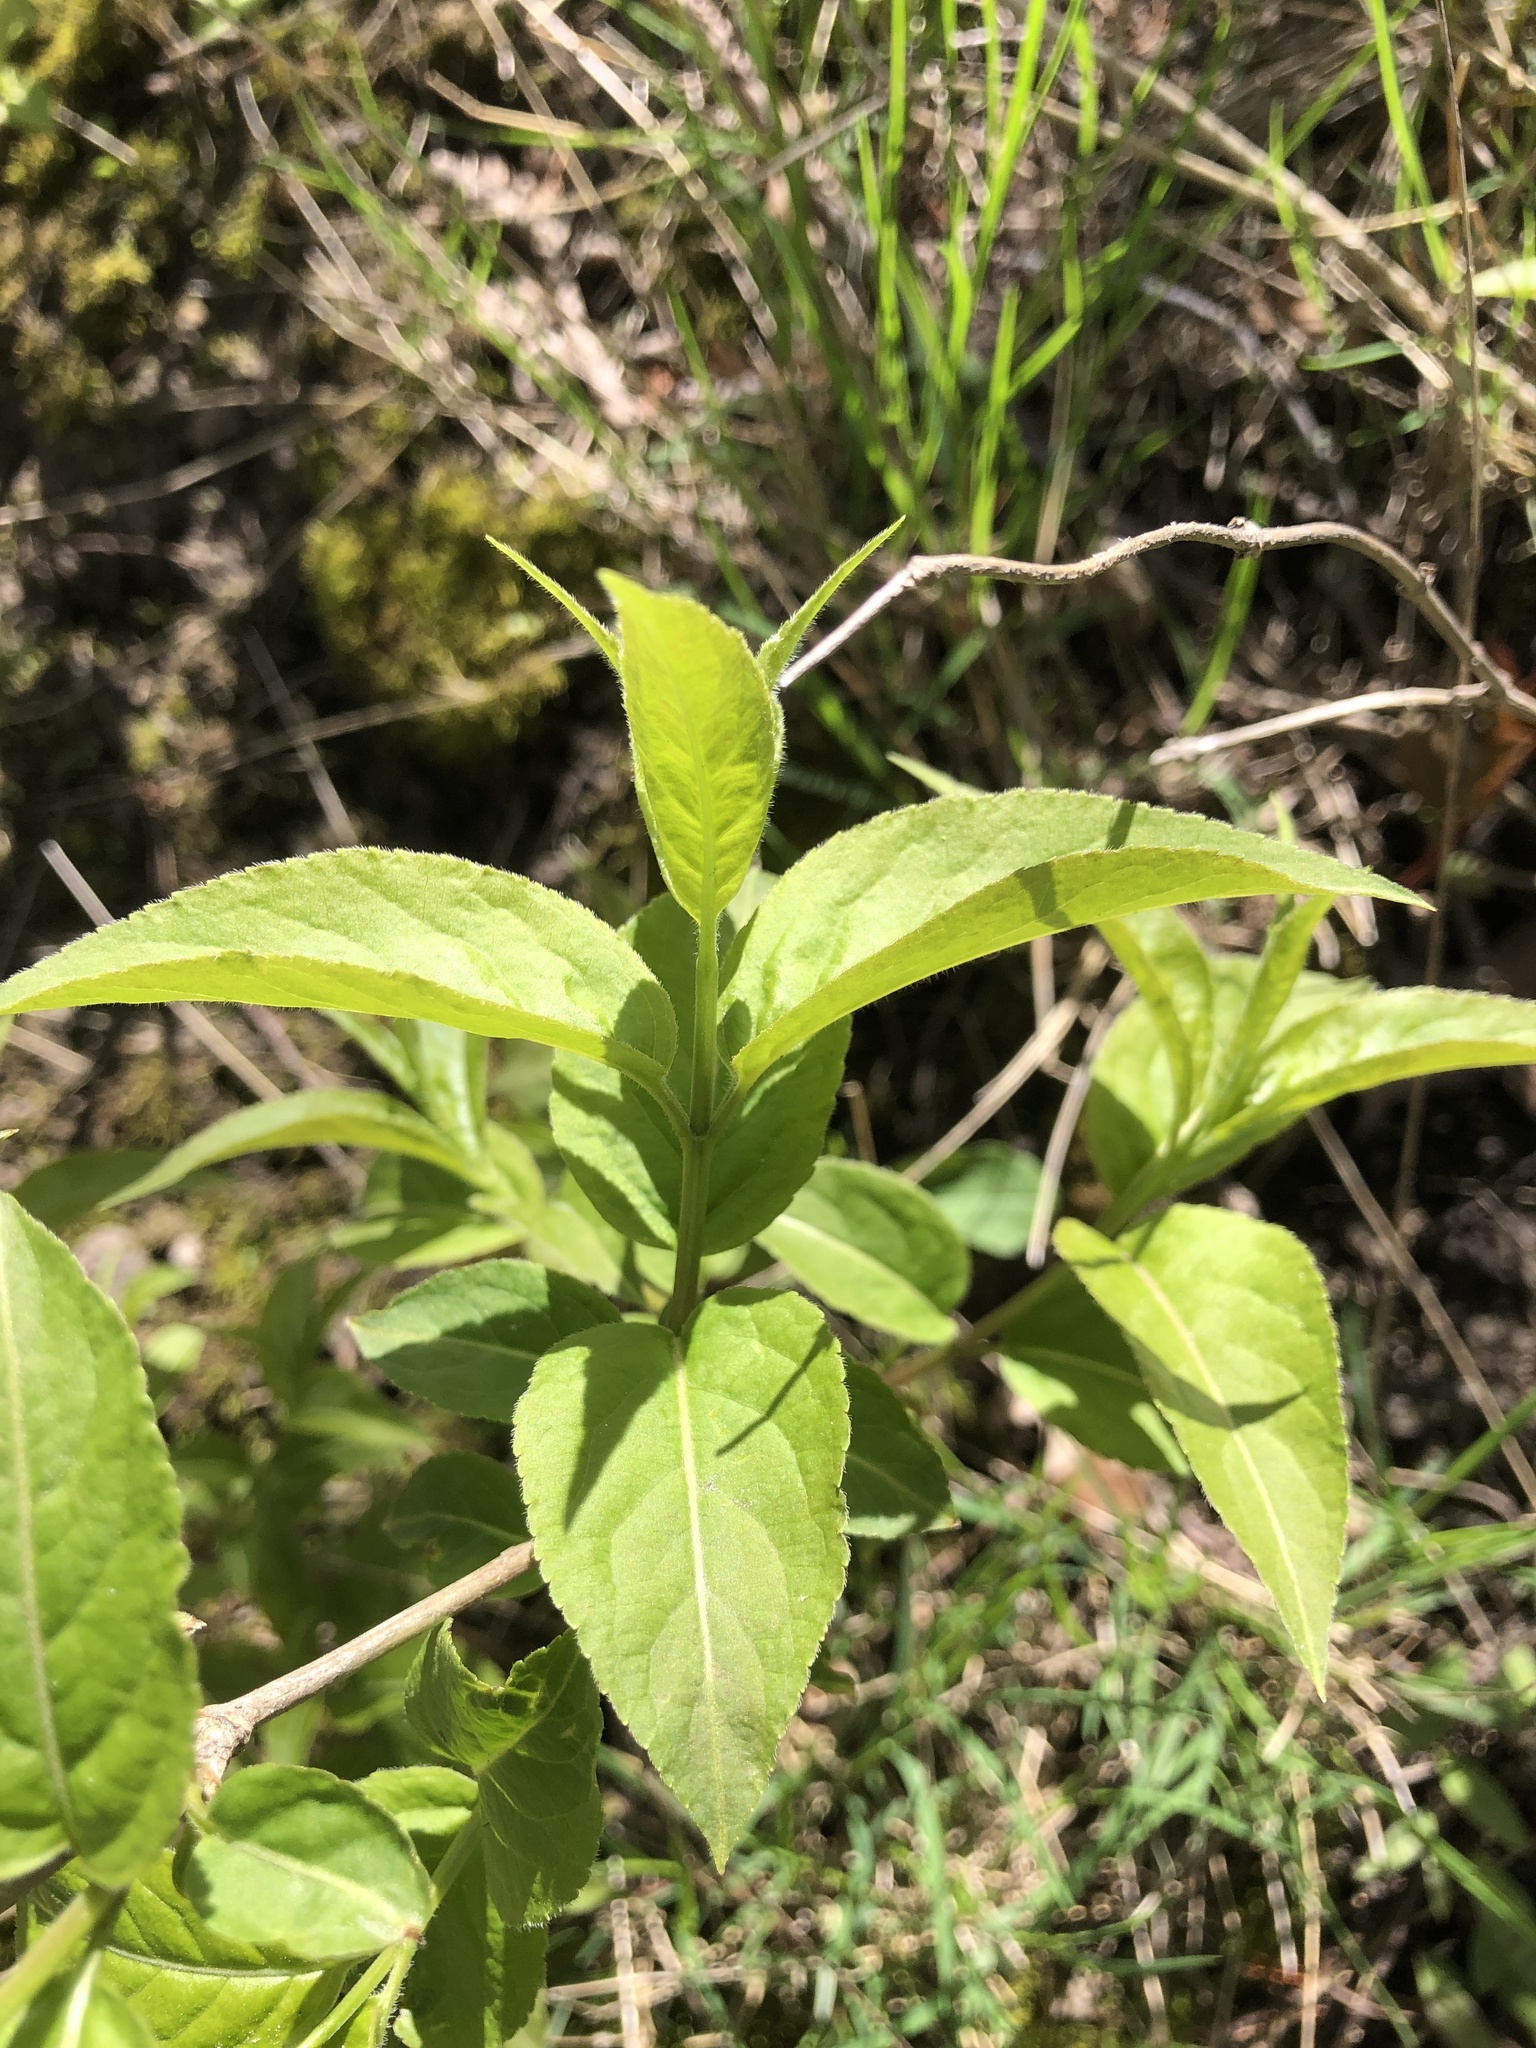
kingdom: Plantae
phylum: Tracheophyta
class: Magnoliopsida
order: Dipsacales
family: Caprifoliaceae
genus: Diervilla
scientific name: Diervilla lonicera
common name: Bush-honeysuckle
